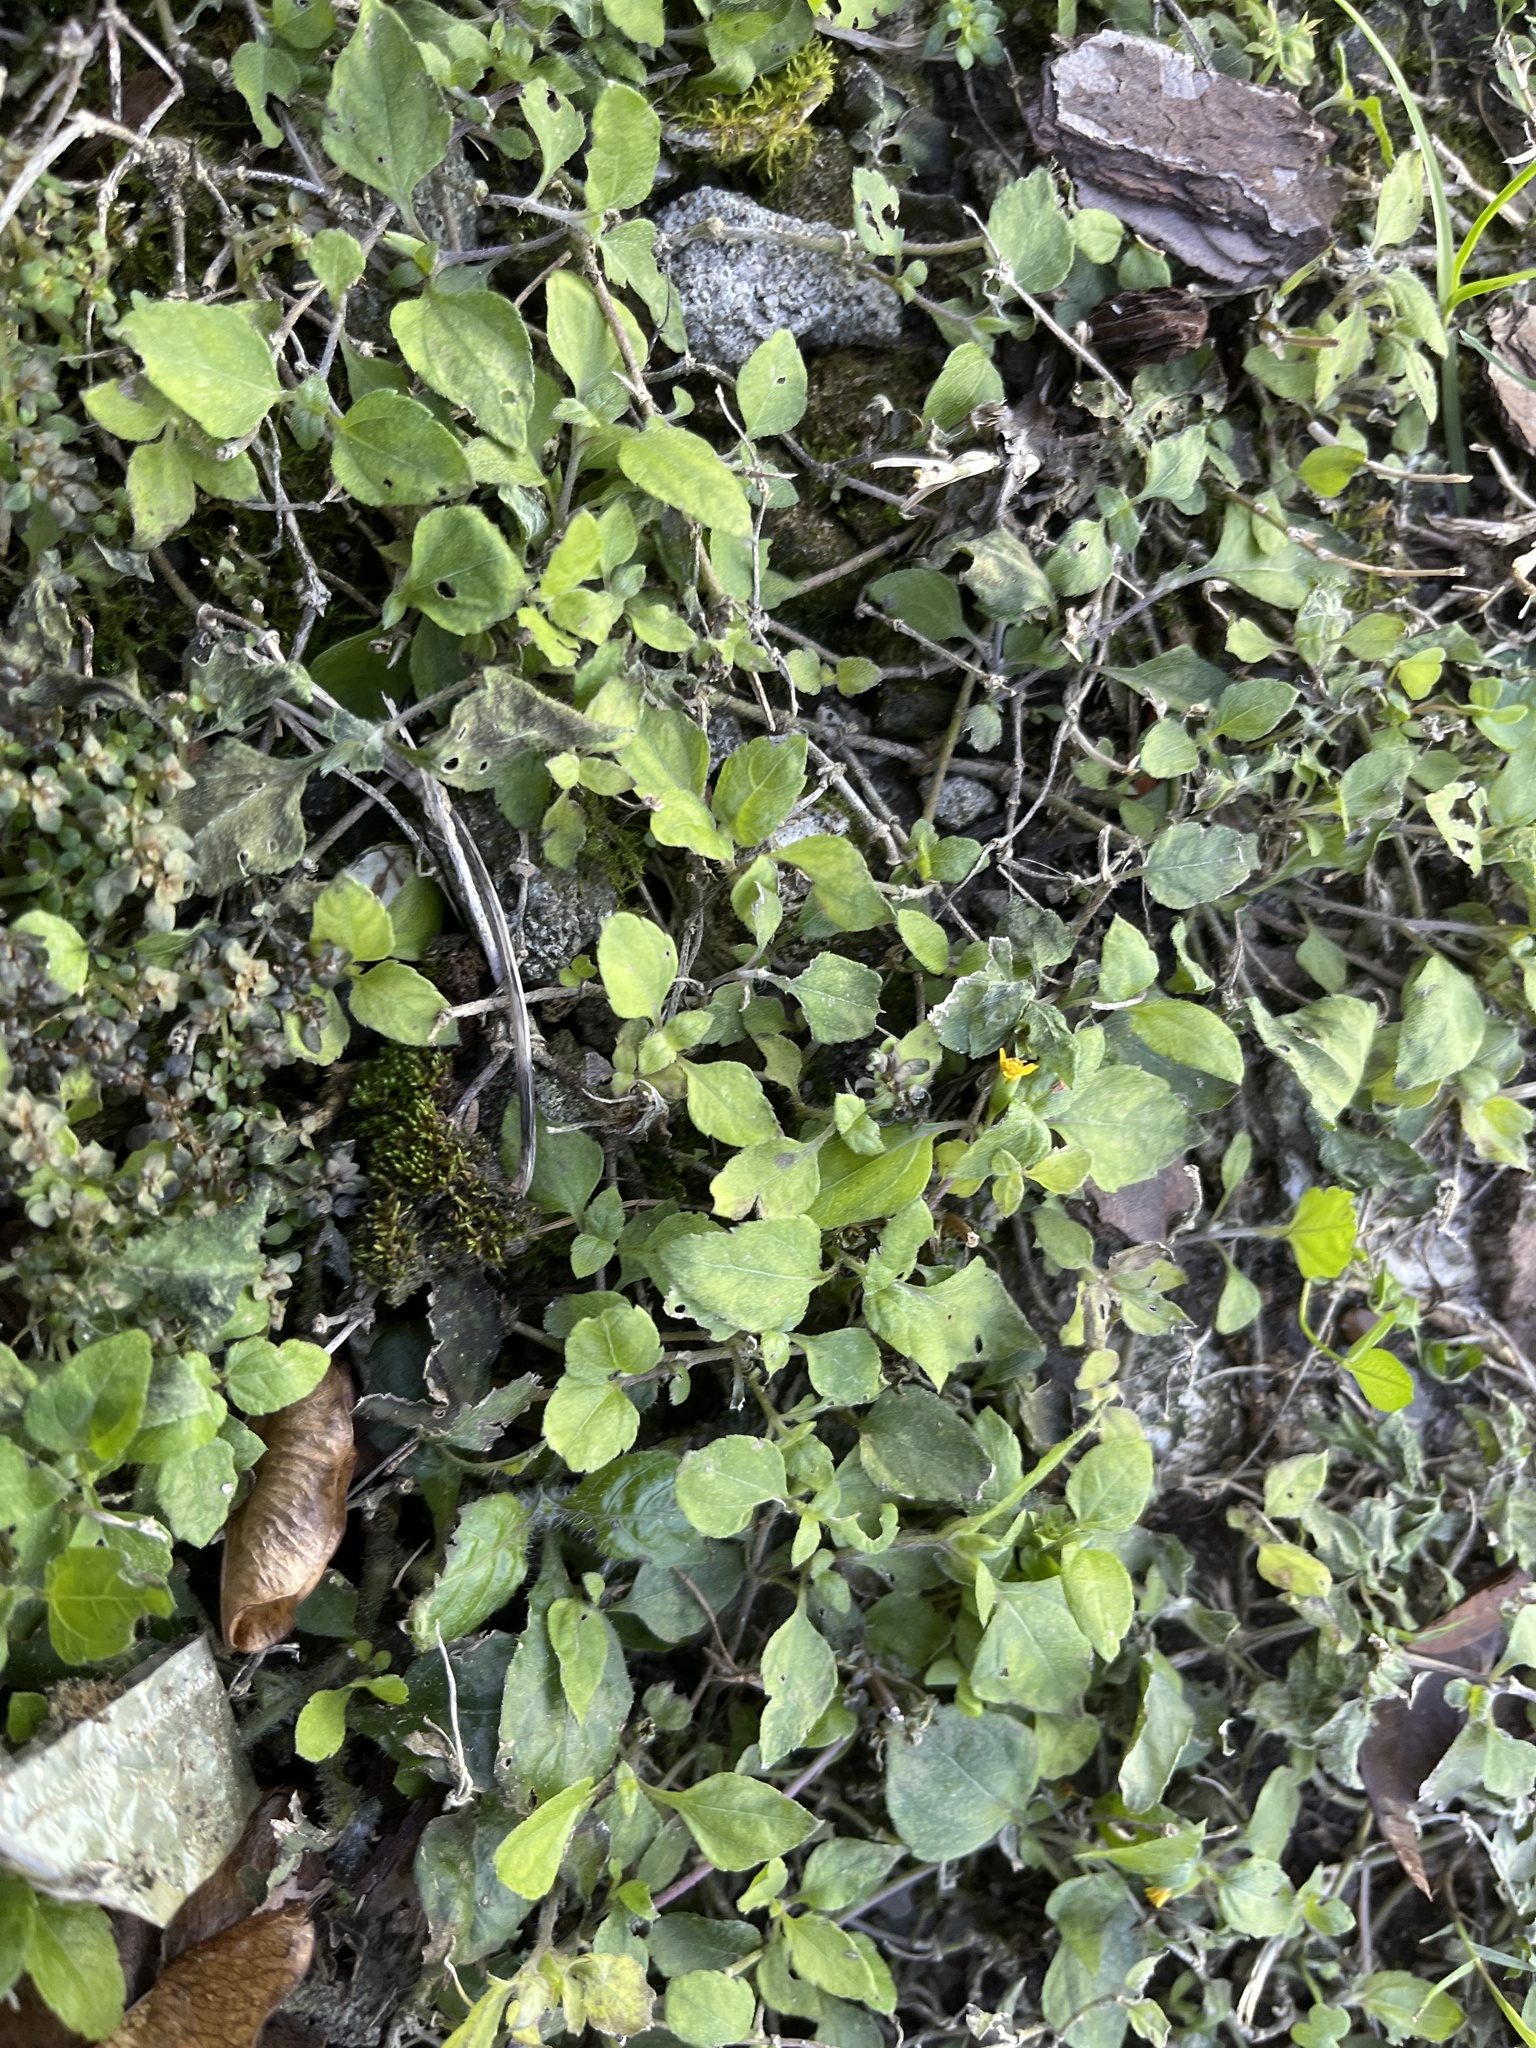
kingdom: Plantae
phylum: Tracheophyta
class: Magnoliopsida
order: Asterales
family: Asteraceae
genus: Calyptocarpus
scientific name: Calyptocarpus vialis
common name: Straggler daisy
